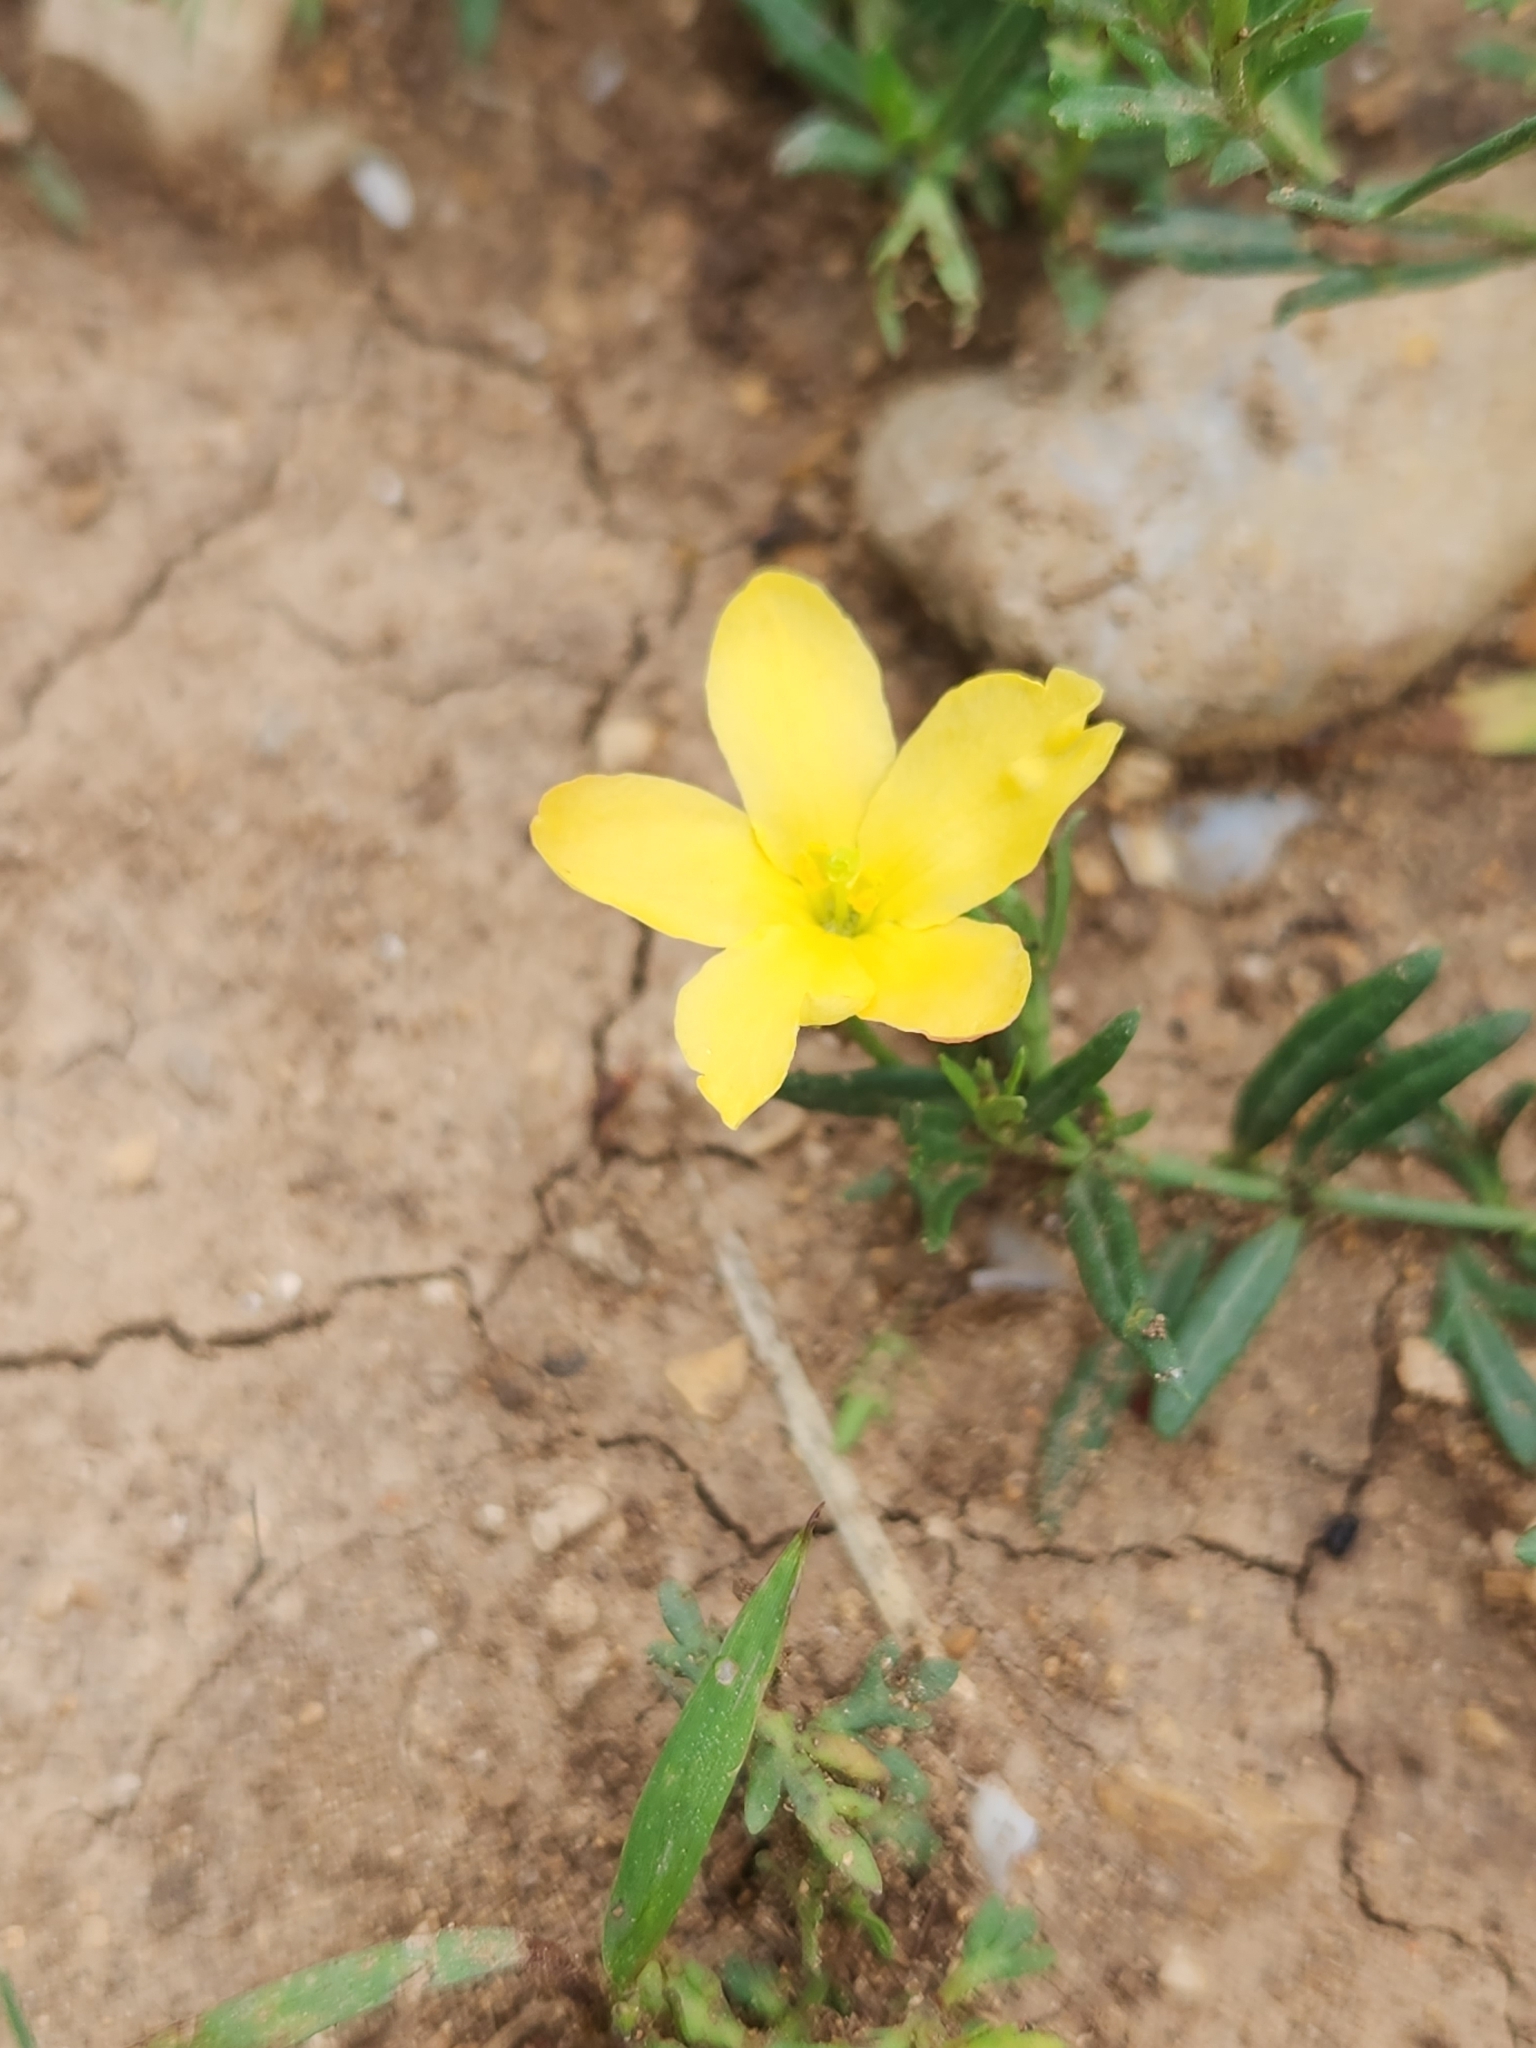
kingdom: Plantae
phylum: Tracheophyta
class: Magnoliopsida
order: Lamiales
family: Oleaceae
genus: Menodora
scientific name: Menodora heterophylla
